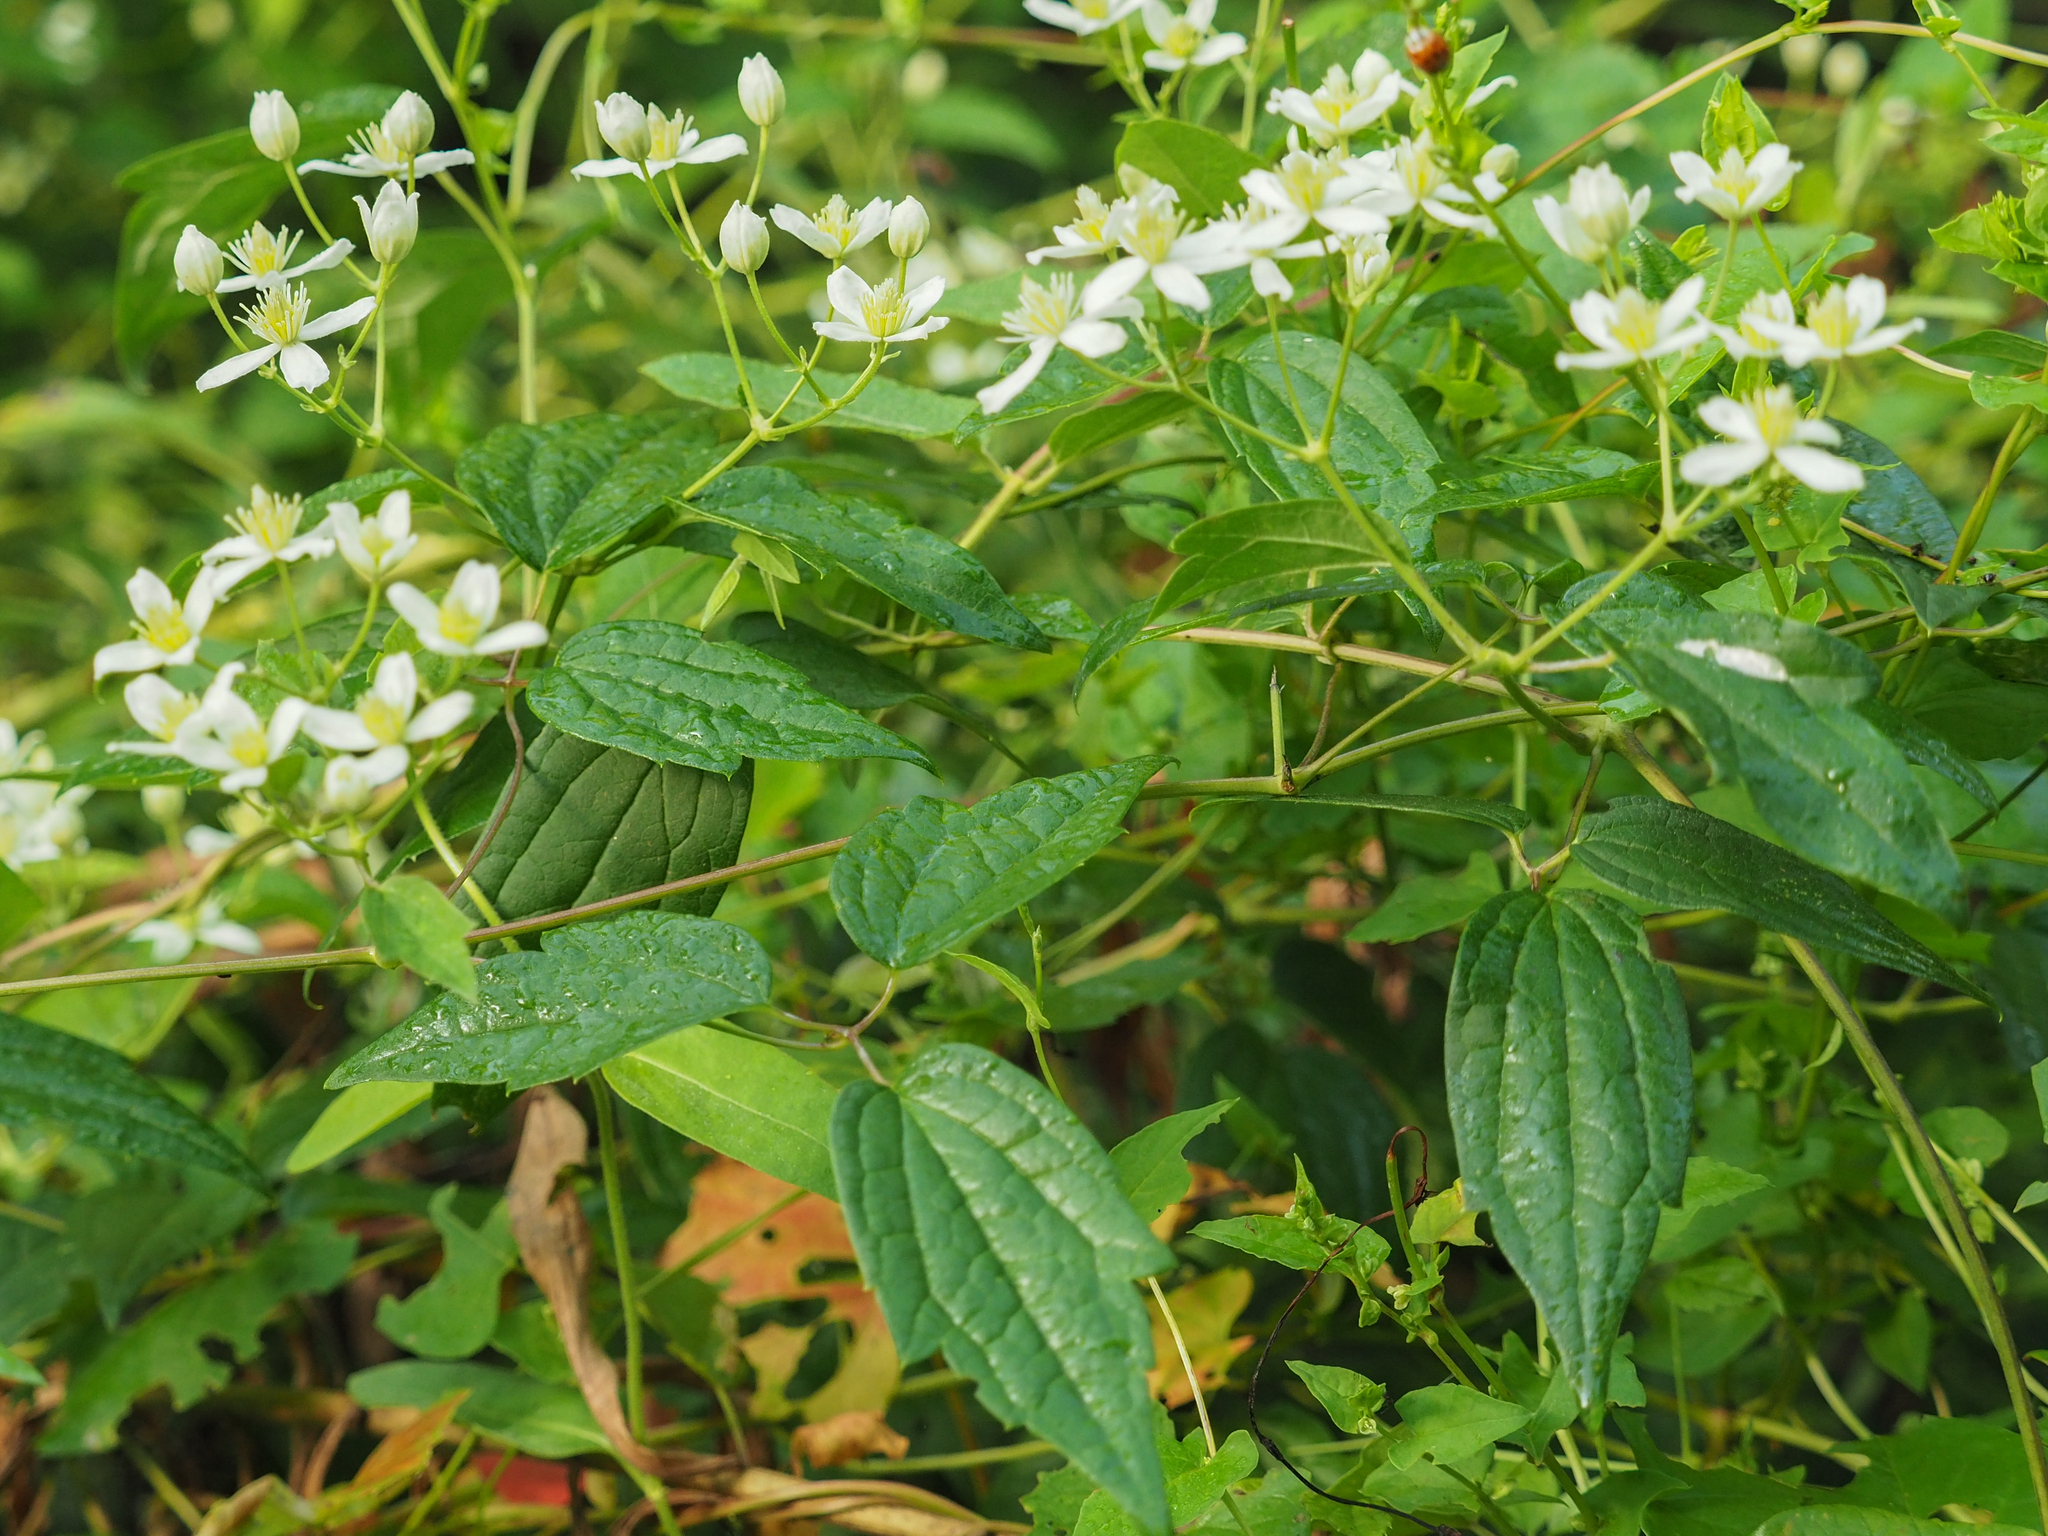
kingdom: Plantae
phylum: Tracheophyta
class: Magnoliopsida
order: Ranunculales
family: Ranunculaceae
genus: Clematis
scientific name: Clematis virginiana
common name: Virgin's-bower
